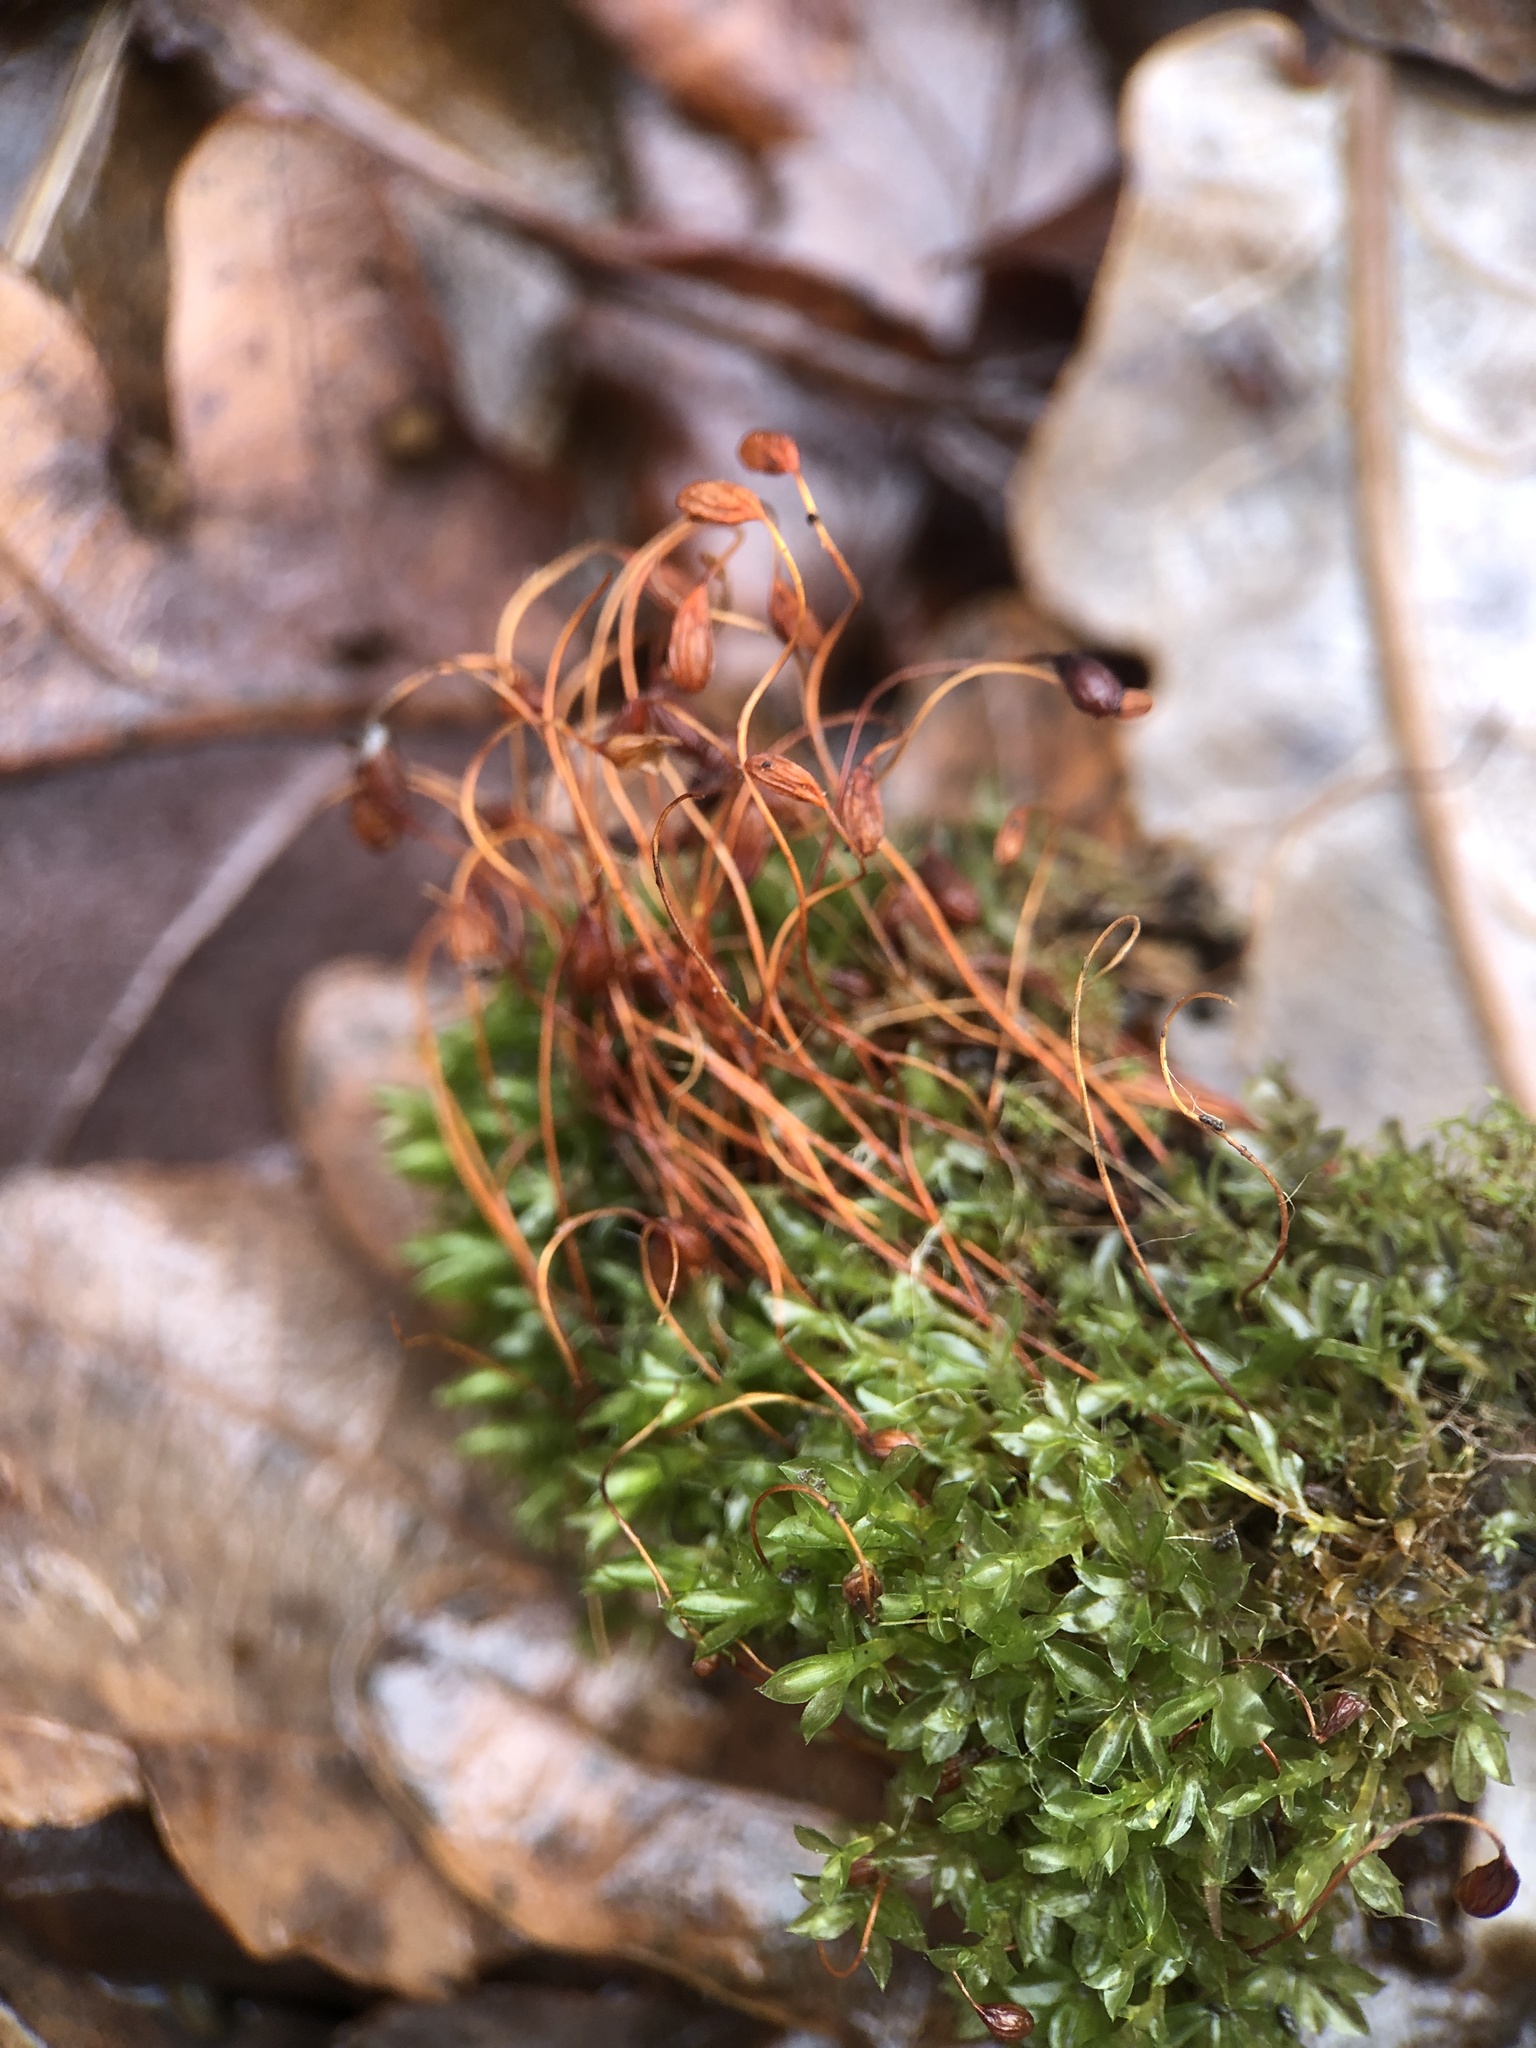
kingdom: Plantae
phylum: Bryophyta
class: Bryopsida
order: Funariales
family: Funariaceae
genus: Funaria
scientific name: Funaria hygrometrica
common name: Common cord moss
